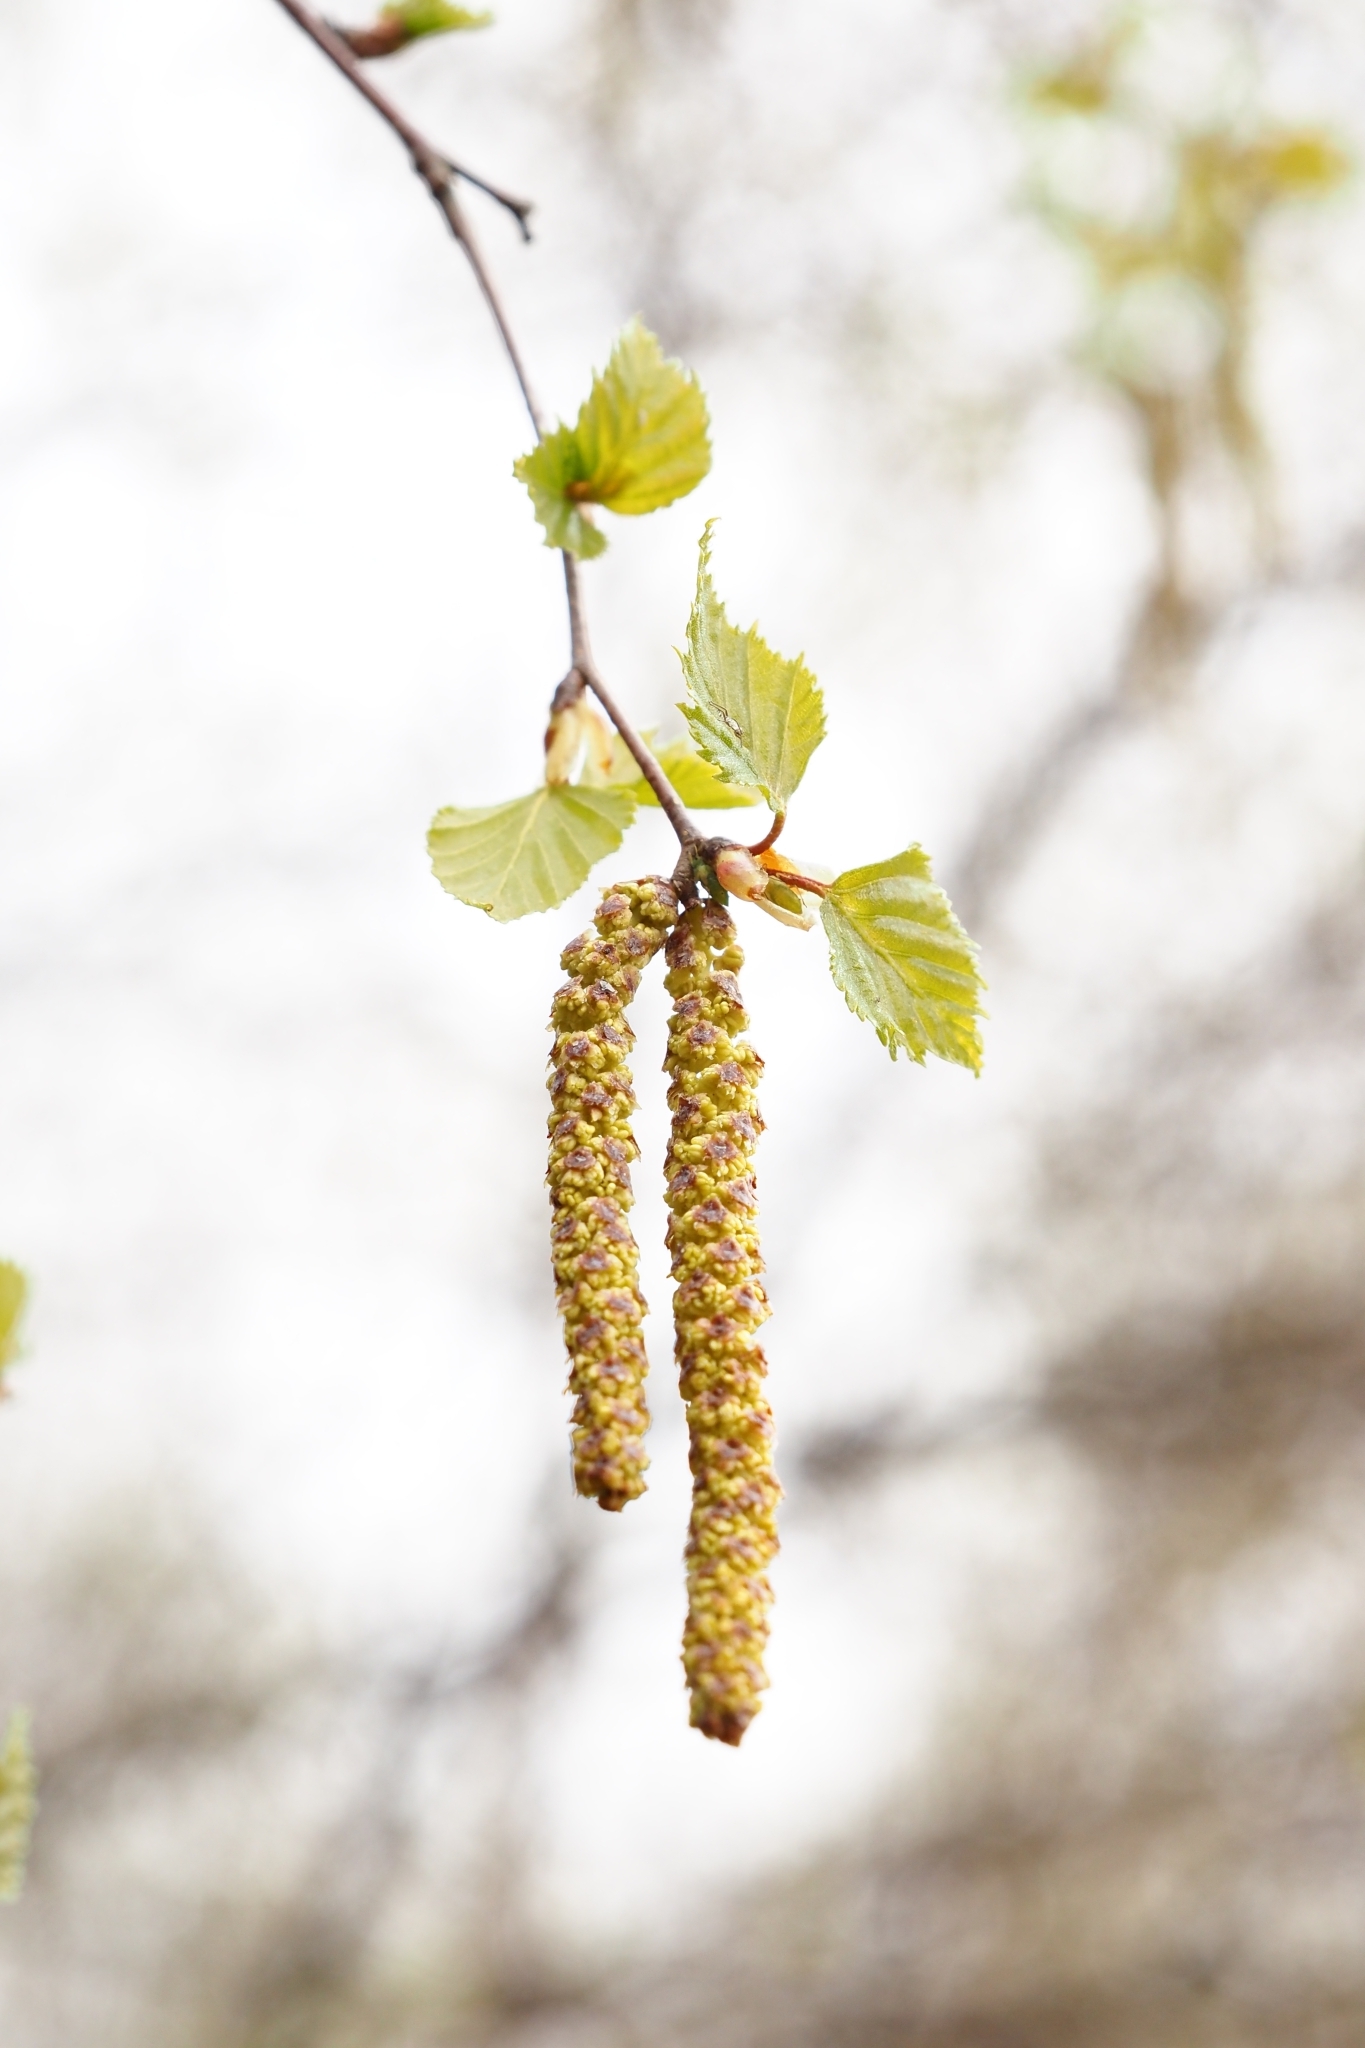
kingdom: Plantae
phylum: Tracheophyta
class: Magnoliopsida
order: Fagales
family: Betulaceae
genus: Betula
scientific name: Betula pendula
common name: Silver birch
